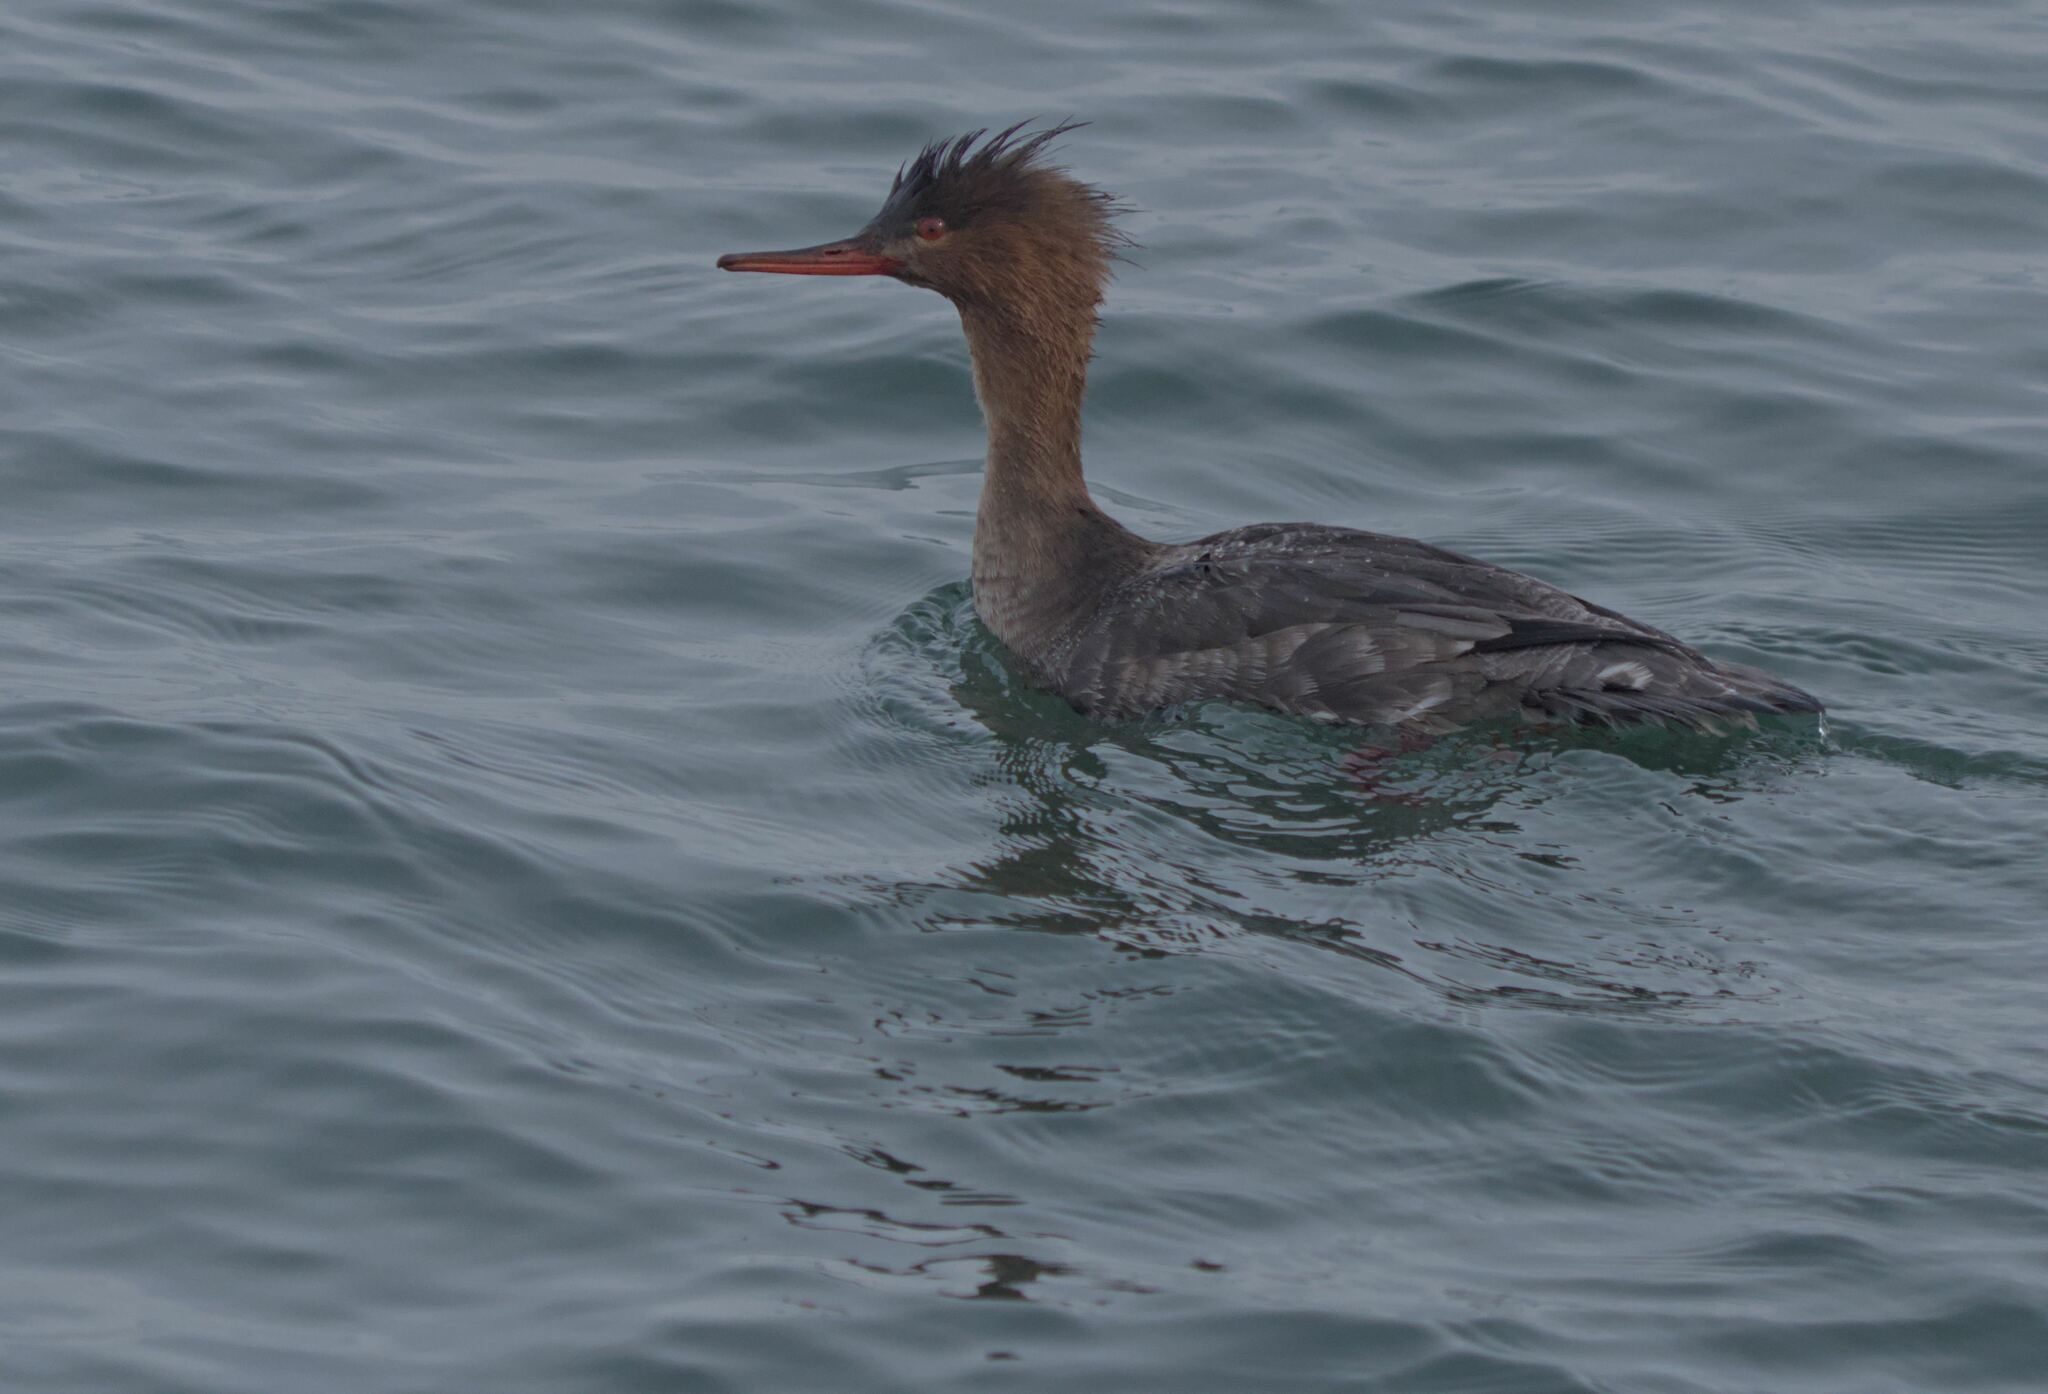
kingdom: Animalia
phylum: Chordata
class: Aves
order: Anseriformes
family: Anatidae
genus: Mergus
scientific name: Mergus serrator
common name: Red-breasted merganser
